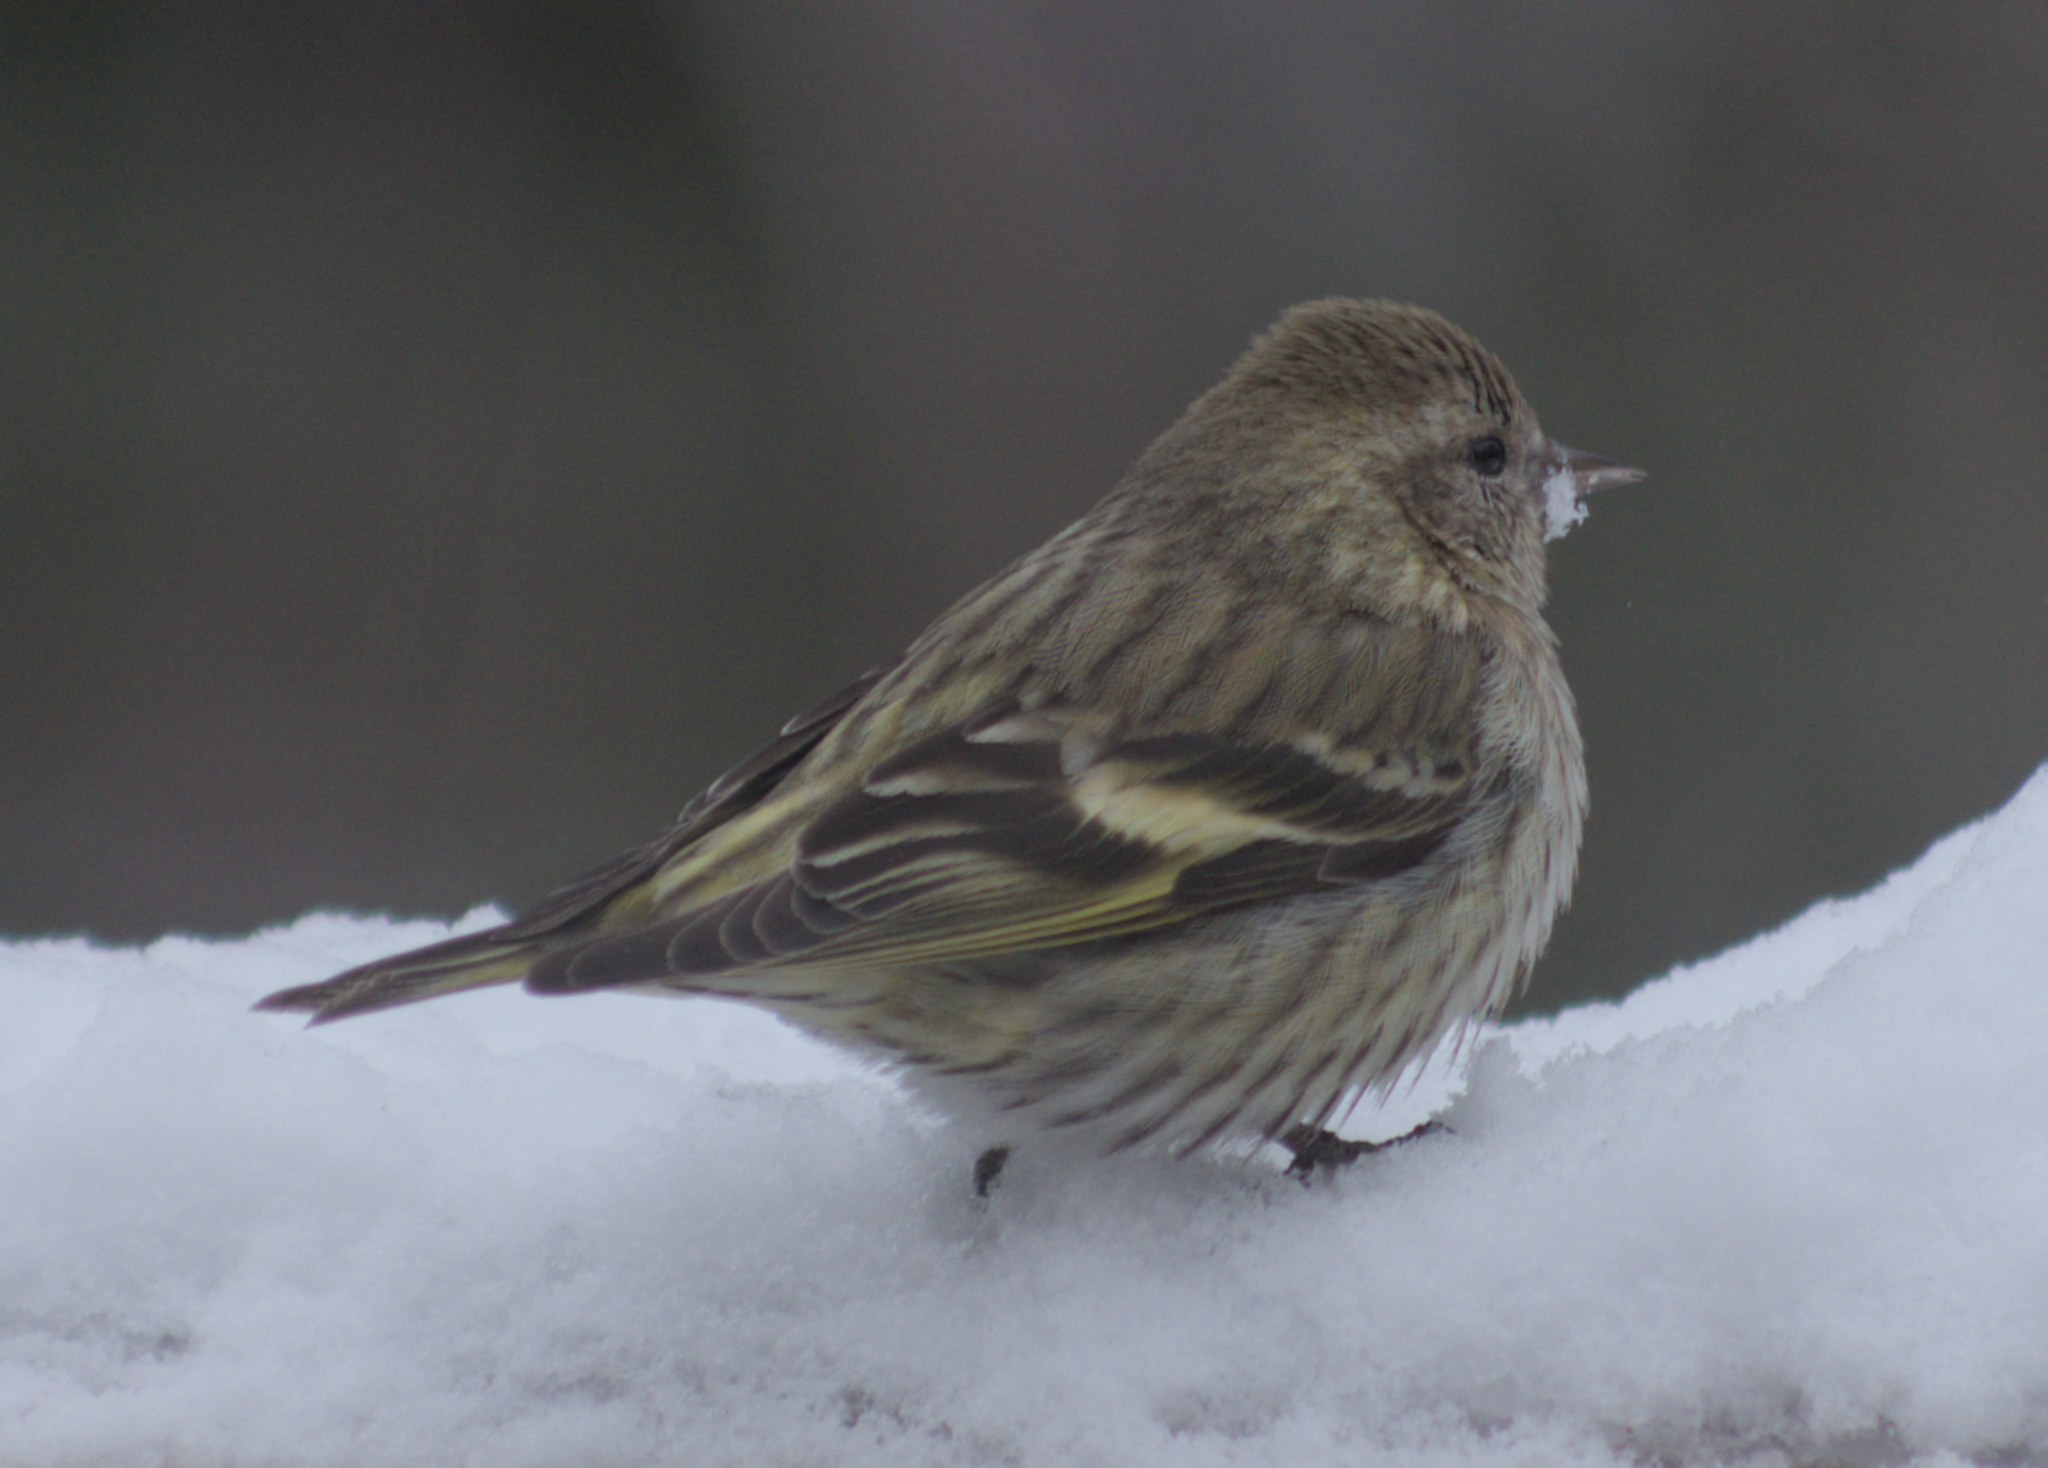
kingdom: Animalia
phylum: Chordata
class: Aves
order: Passeriformes
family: Fringillidae
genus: Spinus
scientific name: Spinus pinus
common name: Pine siskin
